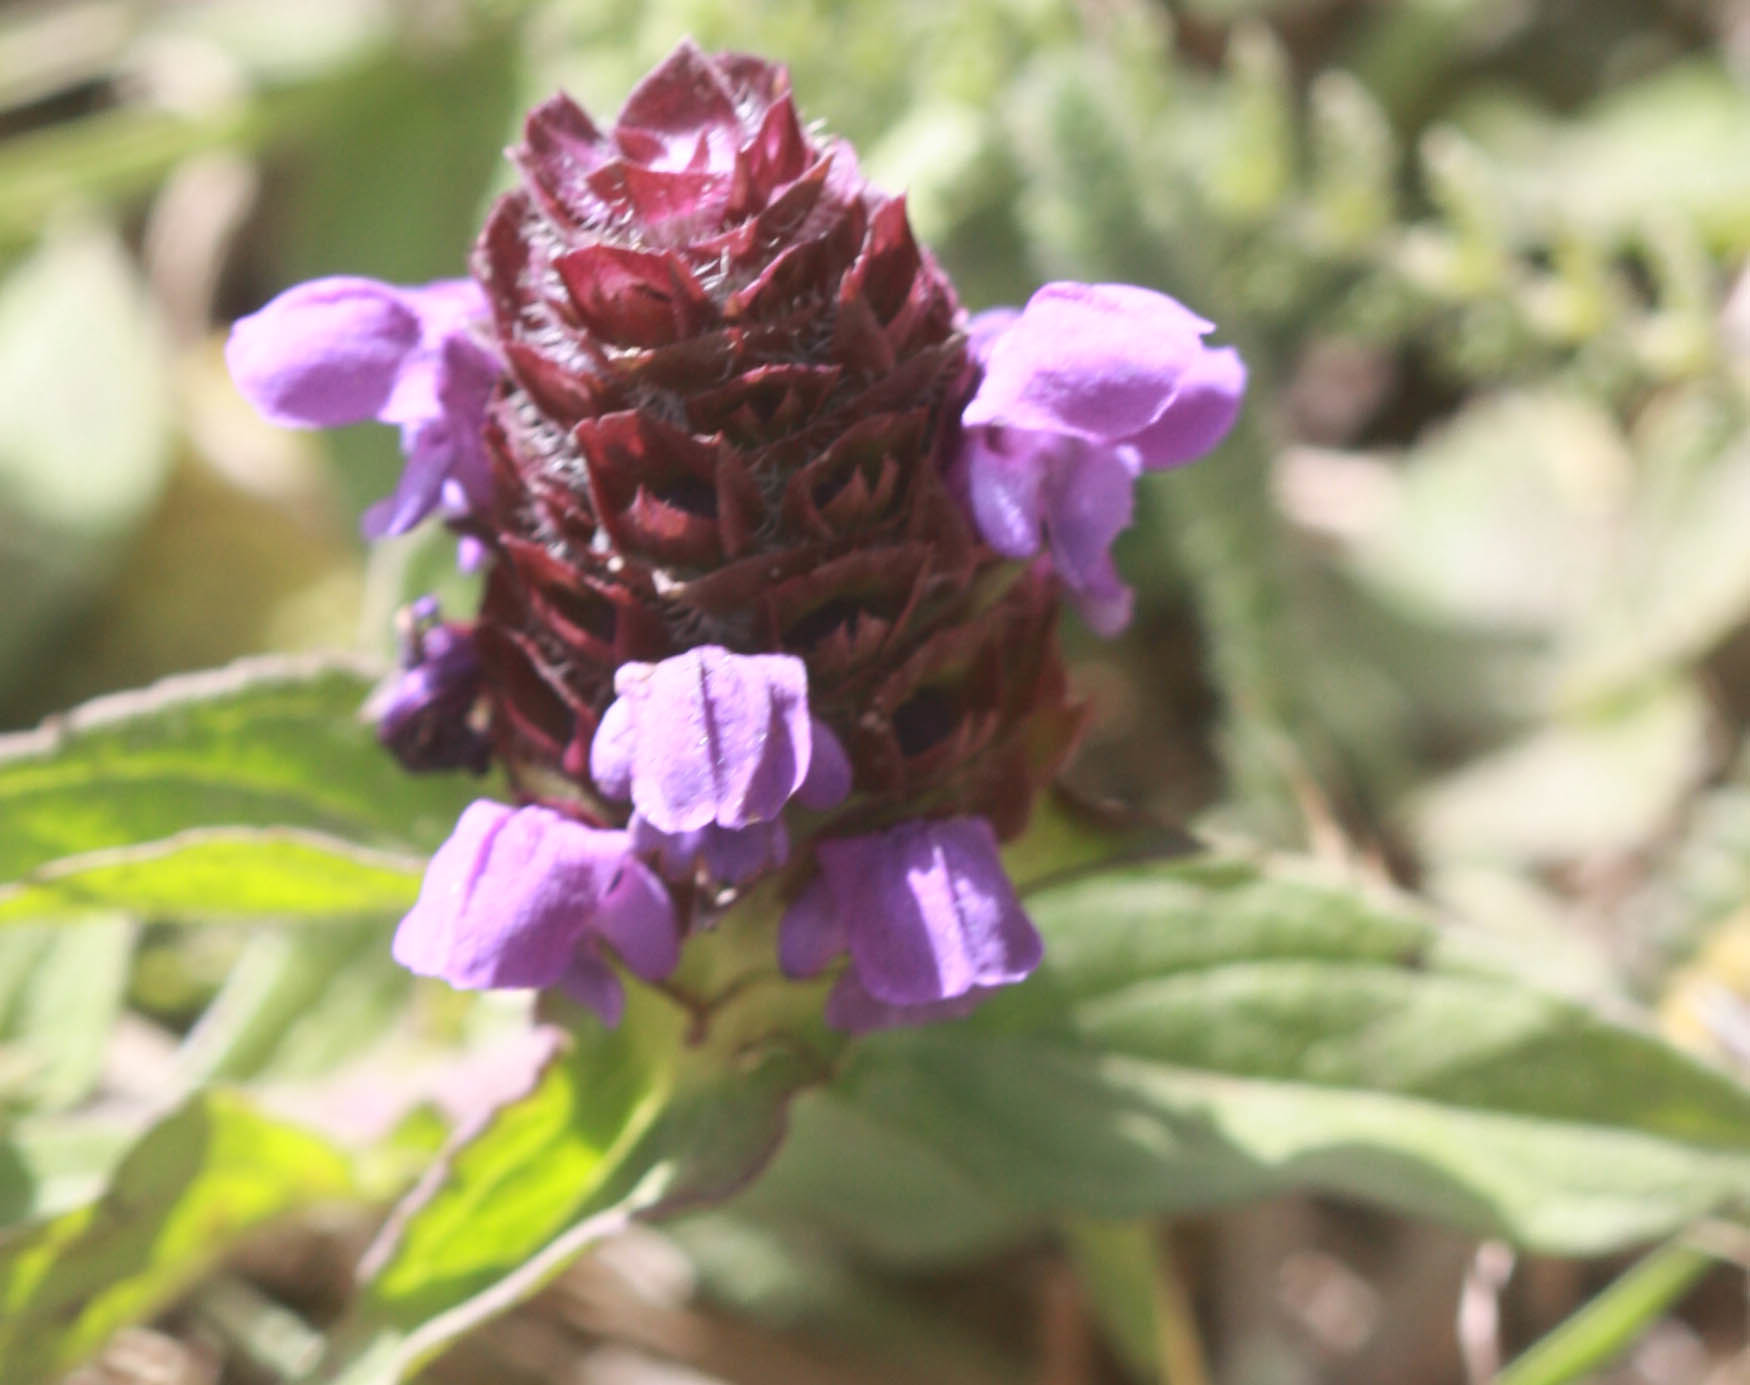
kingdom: Plantae
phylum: Tracheophyta
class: Magnoliopsida
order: Lamiales
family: Lamiaceae
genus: Prunella
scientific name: Prunella vulgaris
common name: Heal-all
